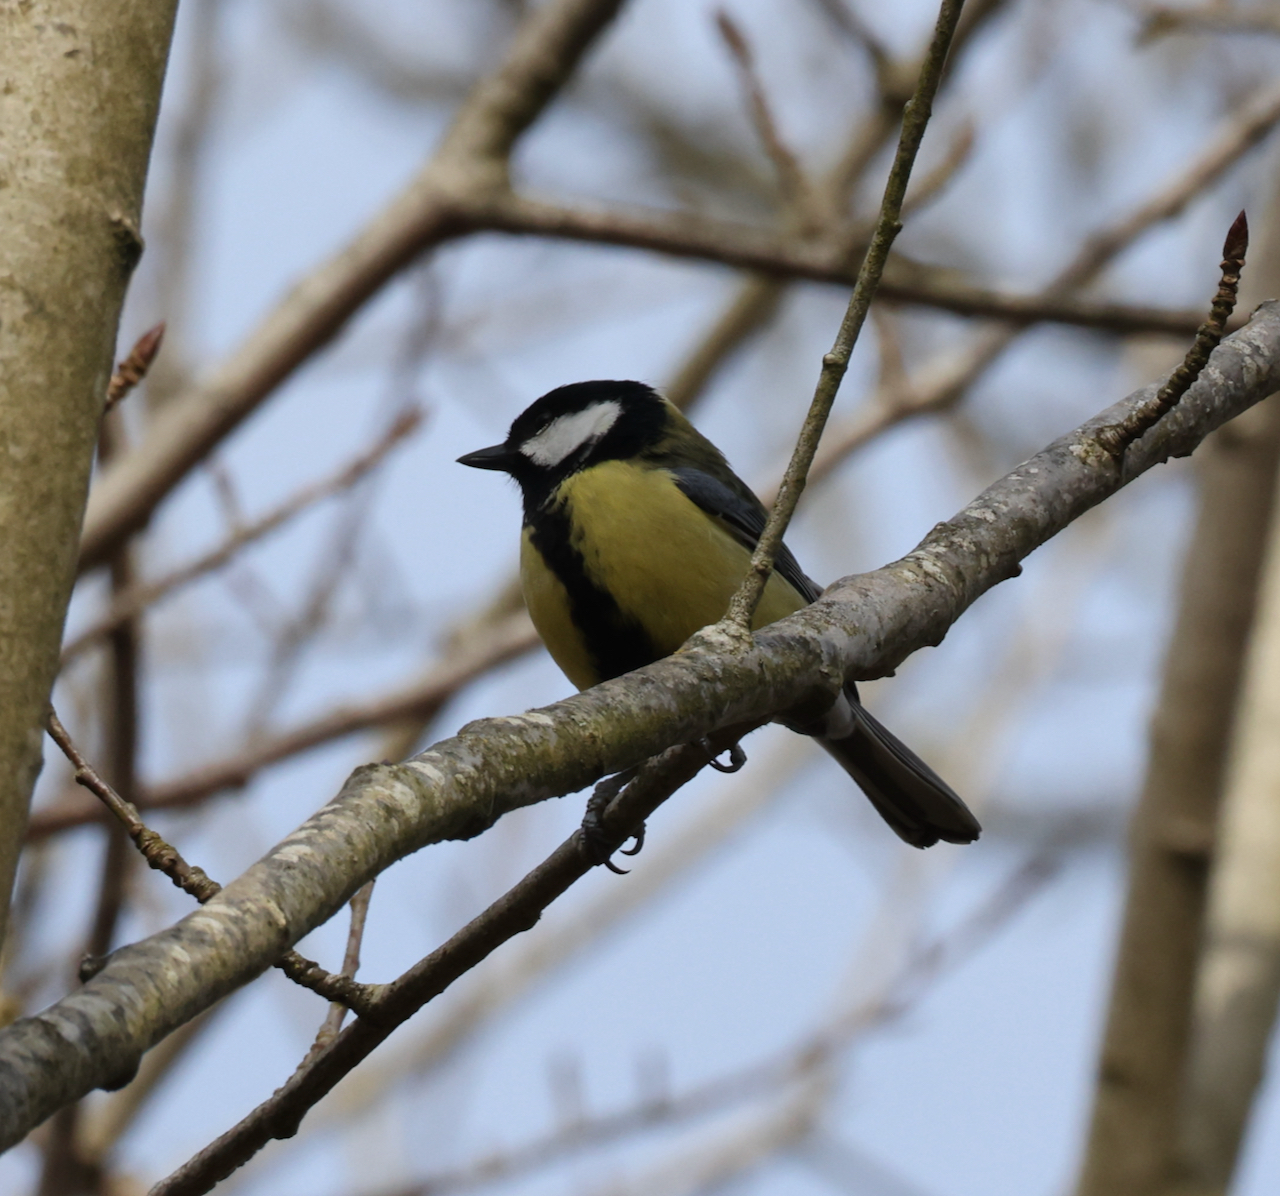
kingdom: Animalia
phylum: Chordata
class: Aves
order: Passeriformes
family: Paridae
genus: Parus
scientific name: Parus major
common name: Great tit
